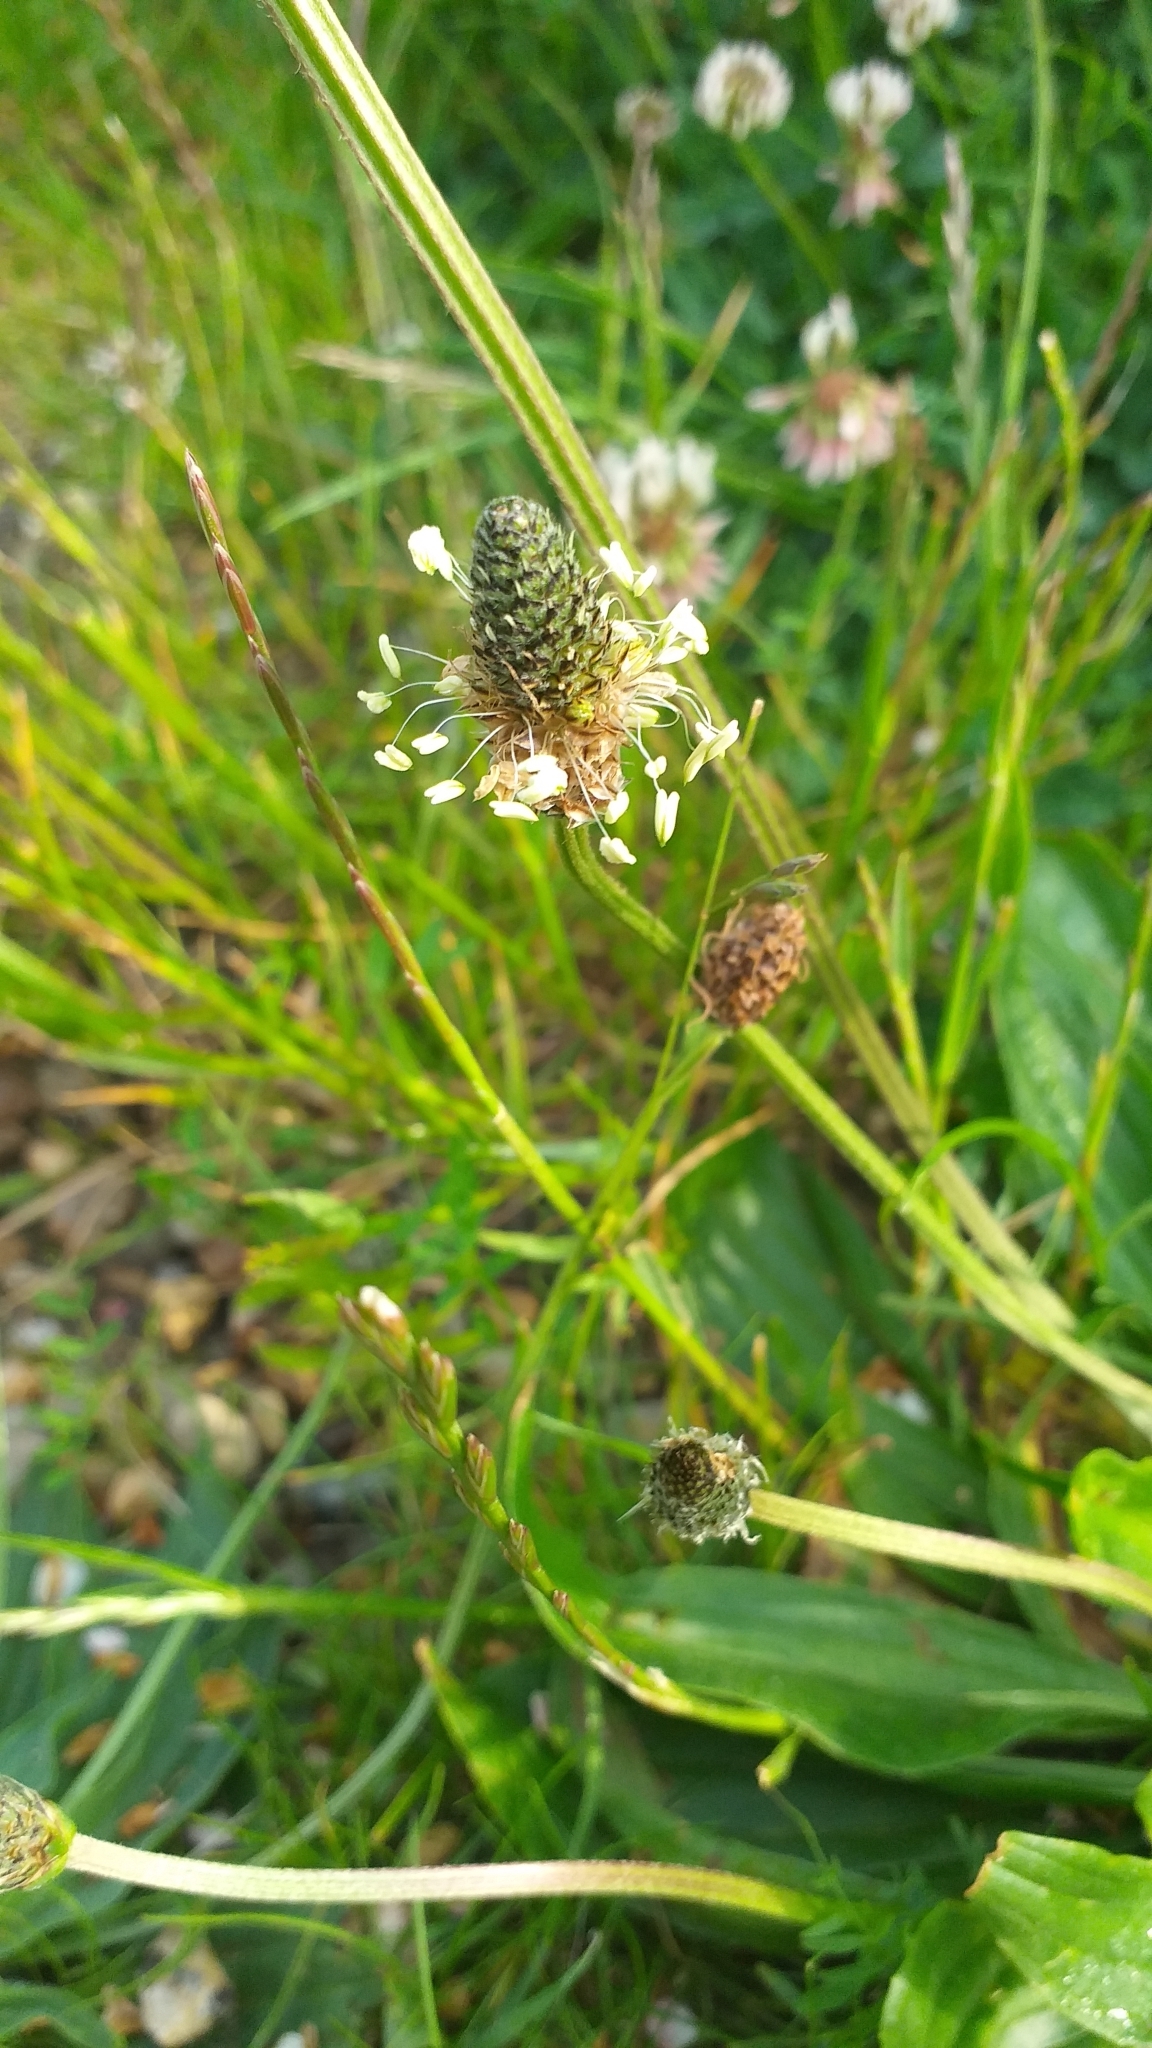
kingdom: Plantae
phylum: Tracheophyta
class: Magnoliopsida
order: Lamiales
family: Plantaginaceae
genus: Plantago
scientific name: Plantago lanceolata
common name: Ribwort plantain
